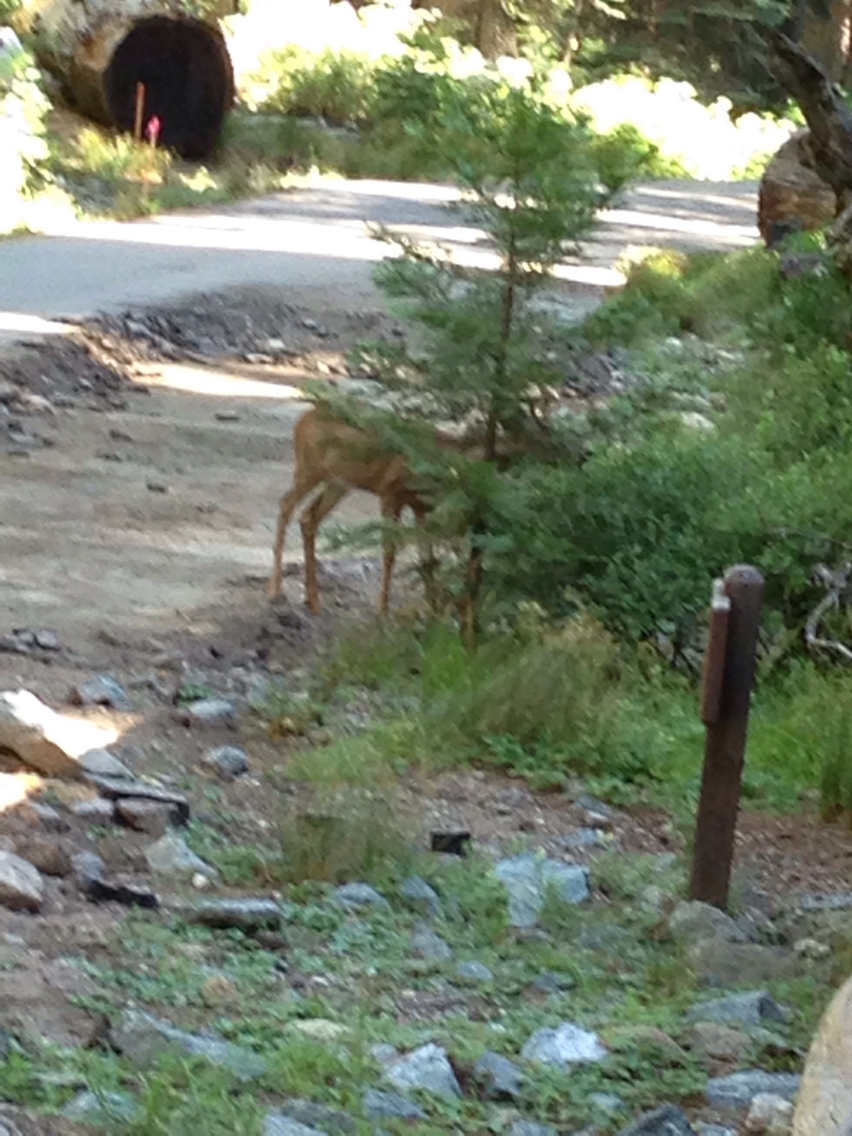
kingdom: Animalia
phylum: Chordata
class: Mammalia
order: Artiodactyla
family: Cervidae
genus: Odocoileus
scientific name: Odocoileus hemionus
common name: Mule deer
